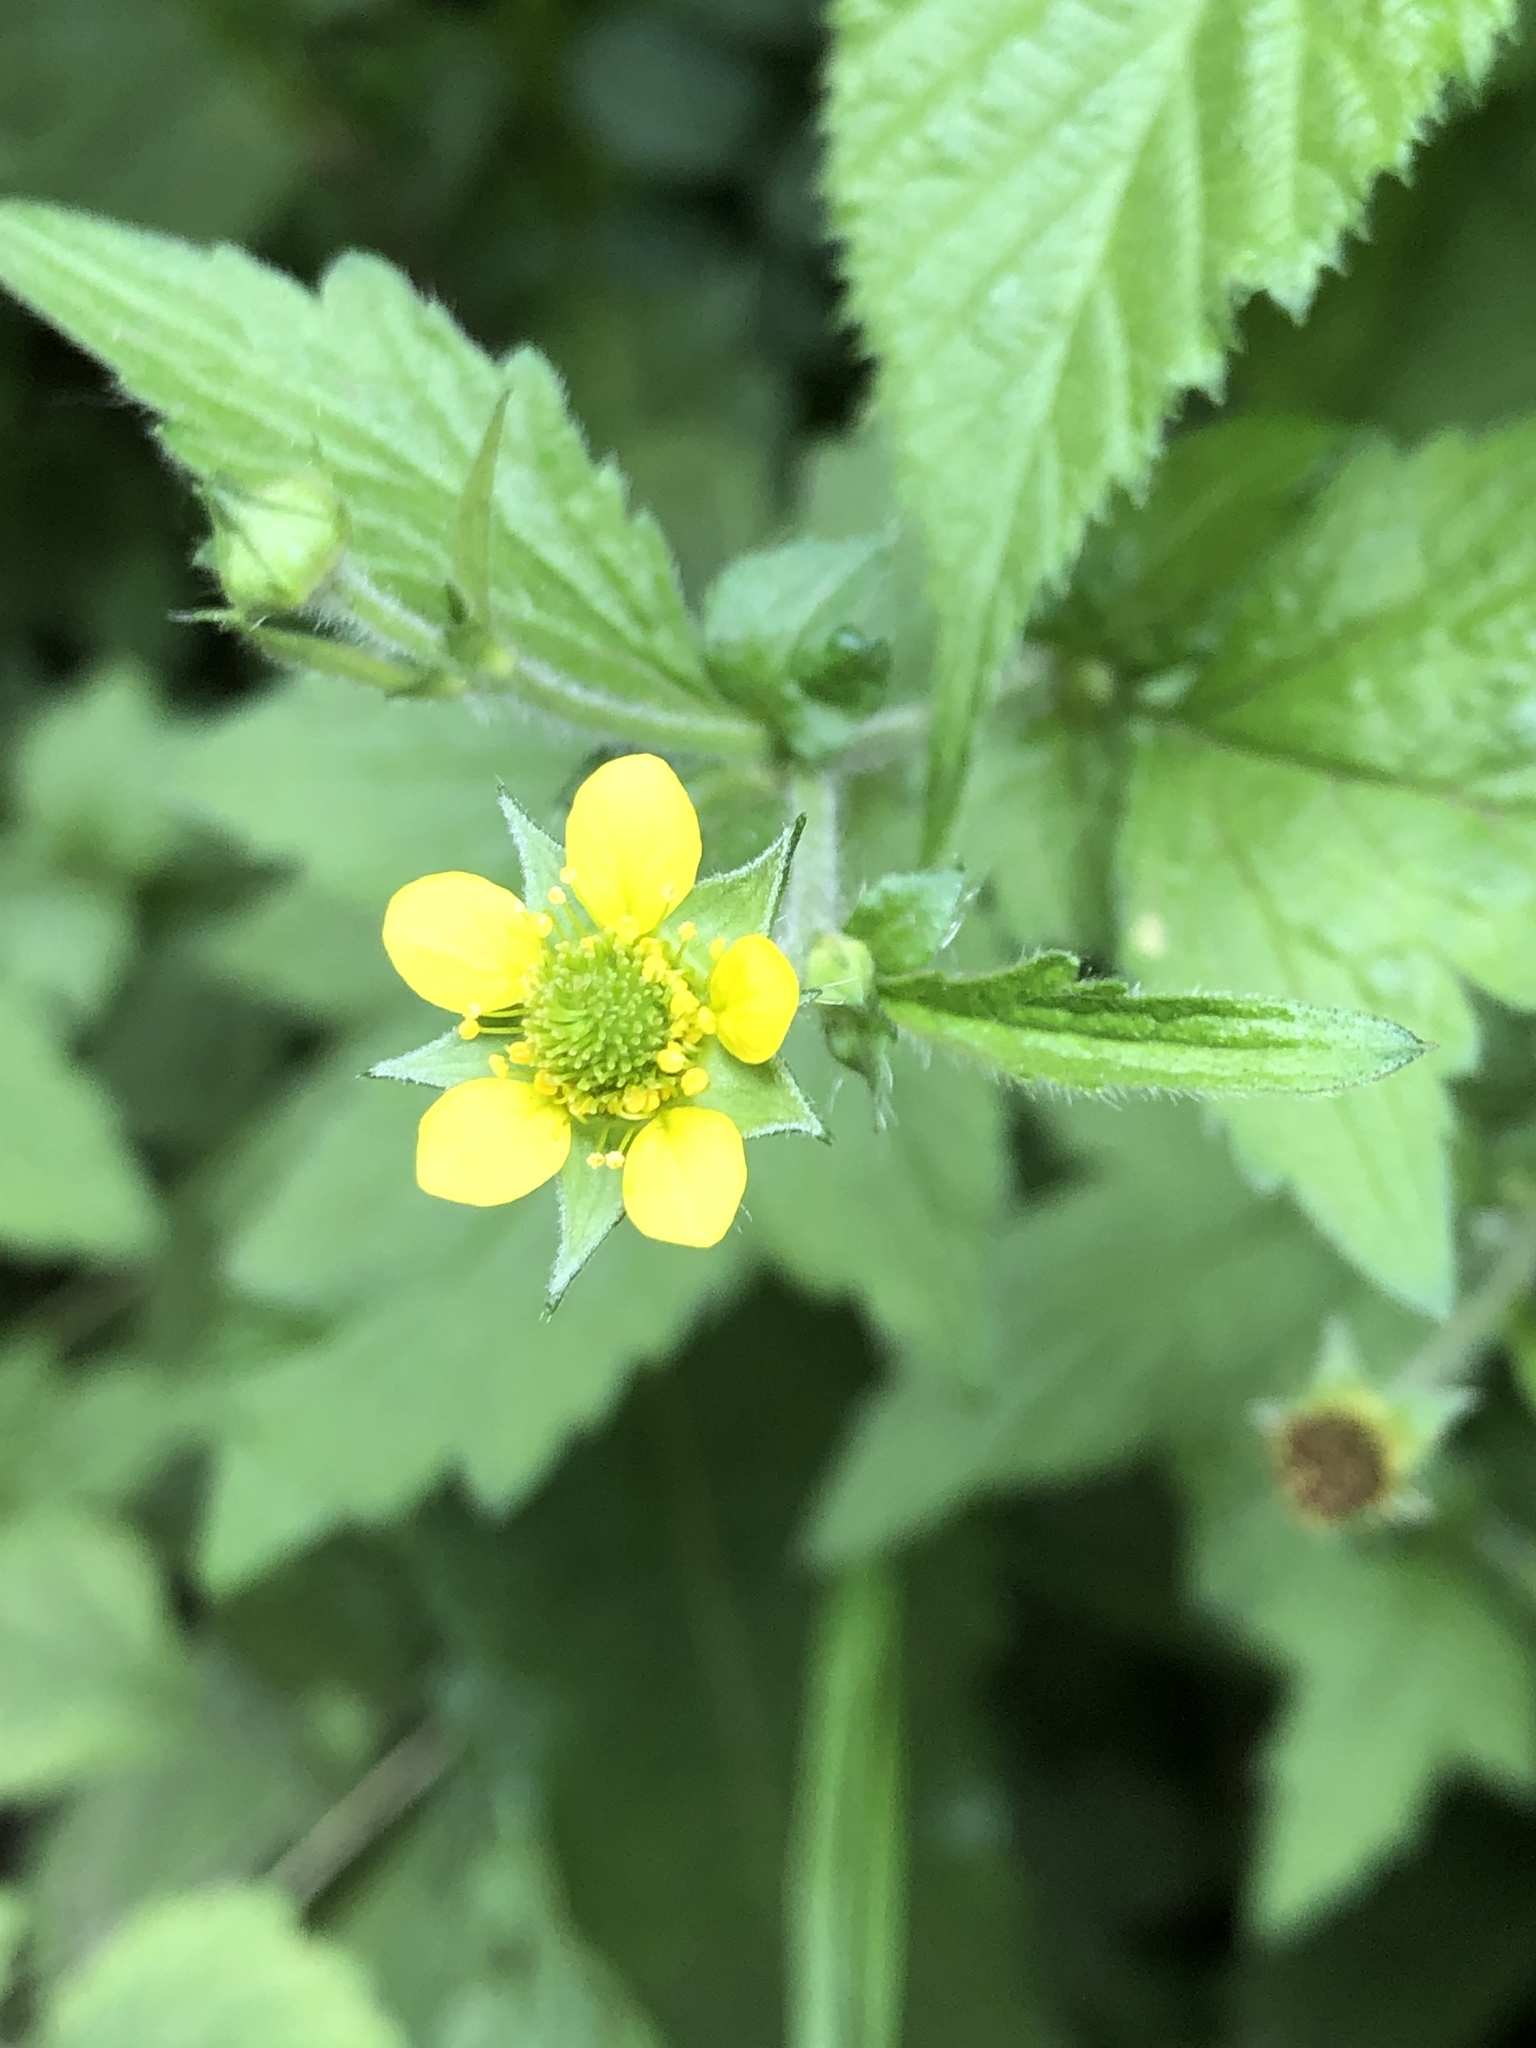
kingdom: Plantae
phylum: Tracheophyta
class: Magnoliopsida
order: Rosales
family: Rosaceae
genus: Geum
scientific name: Geum urbanum
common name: Wood avens
